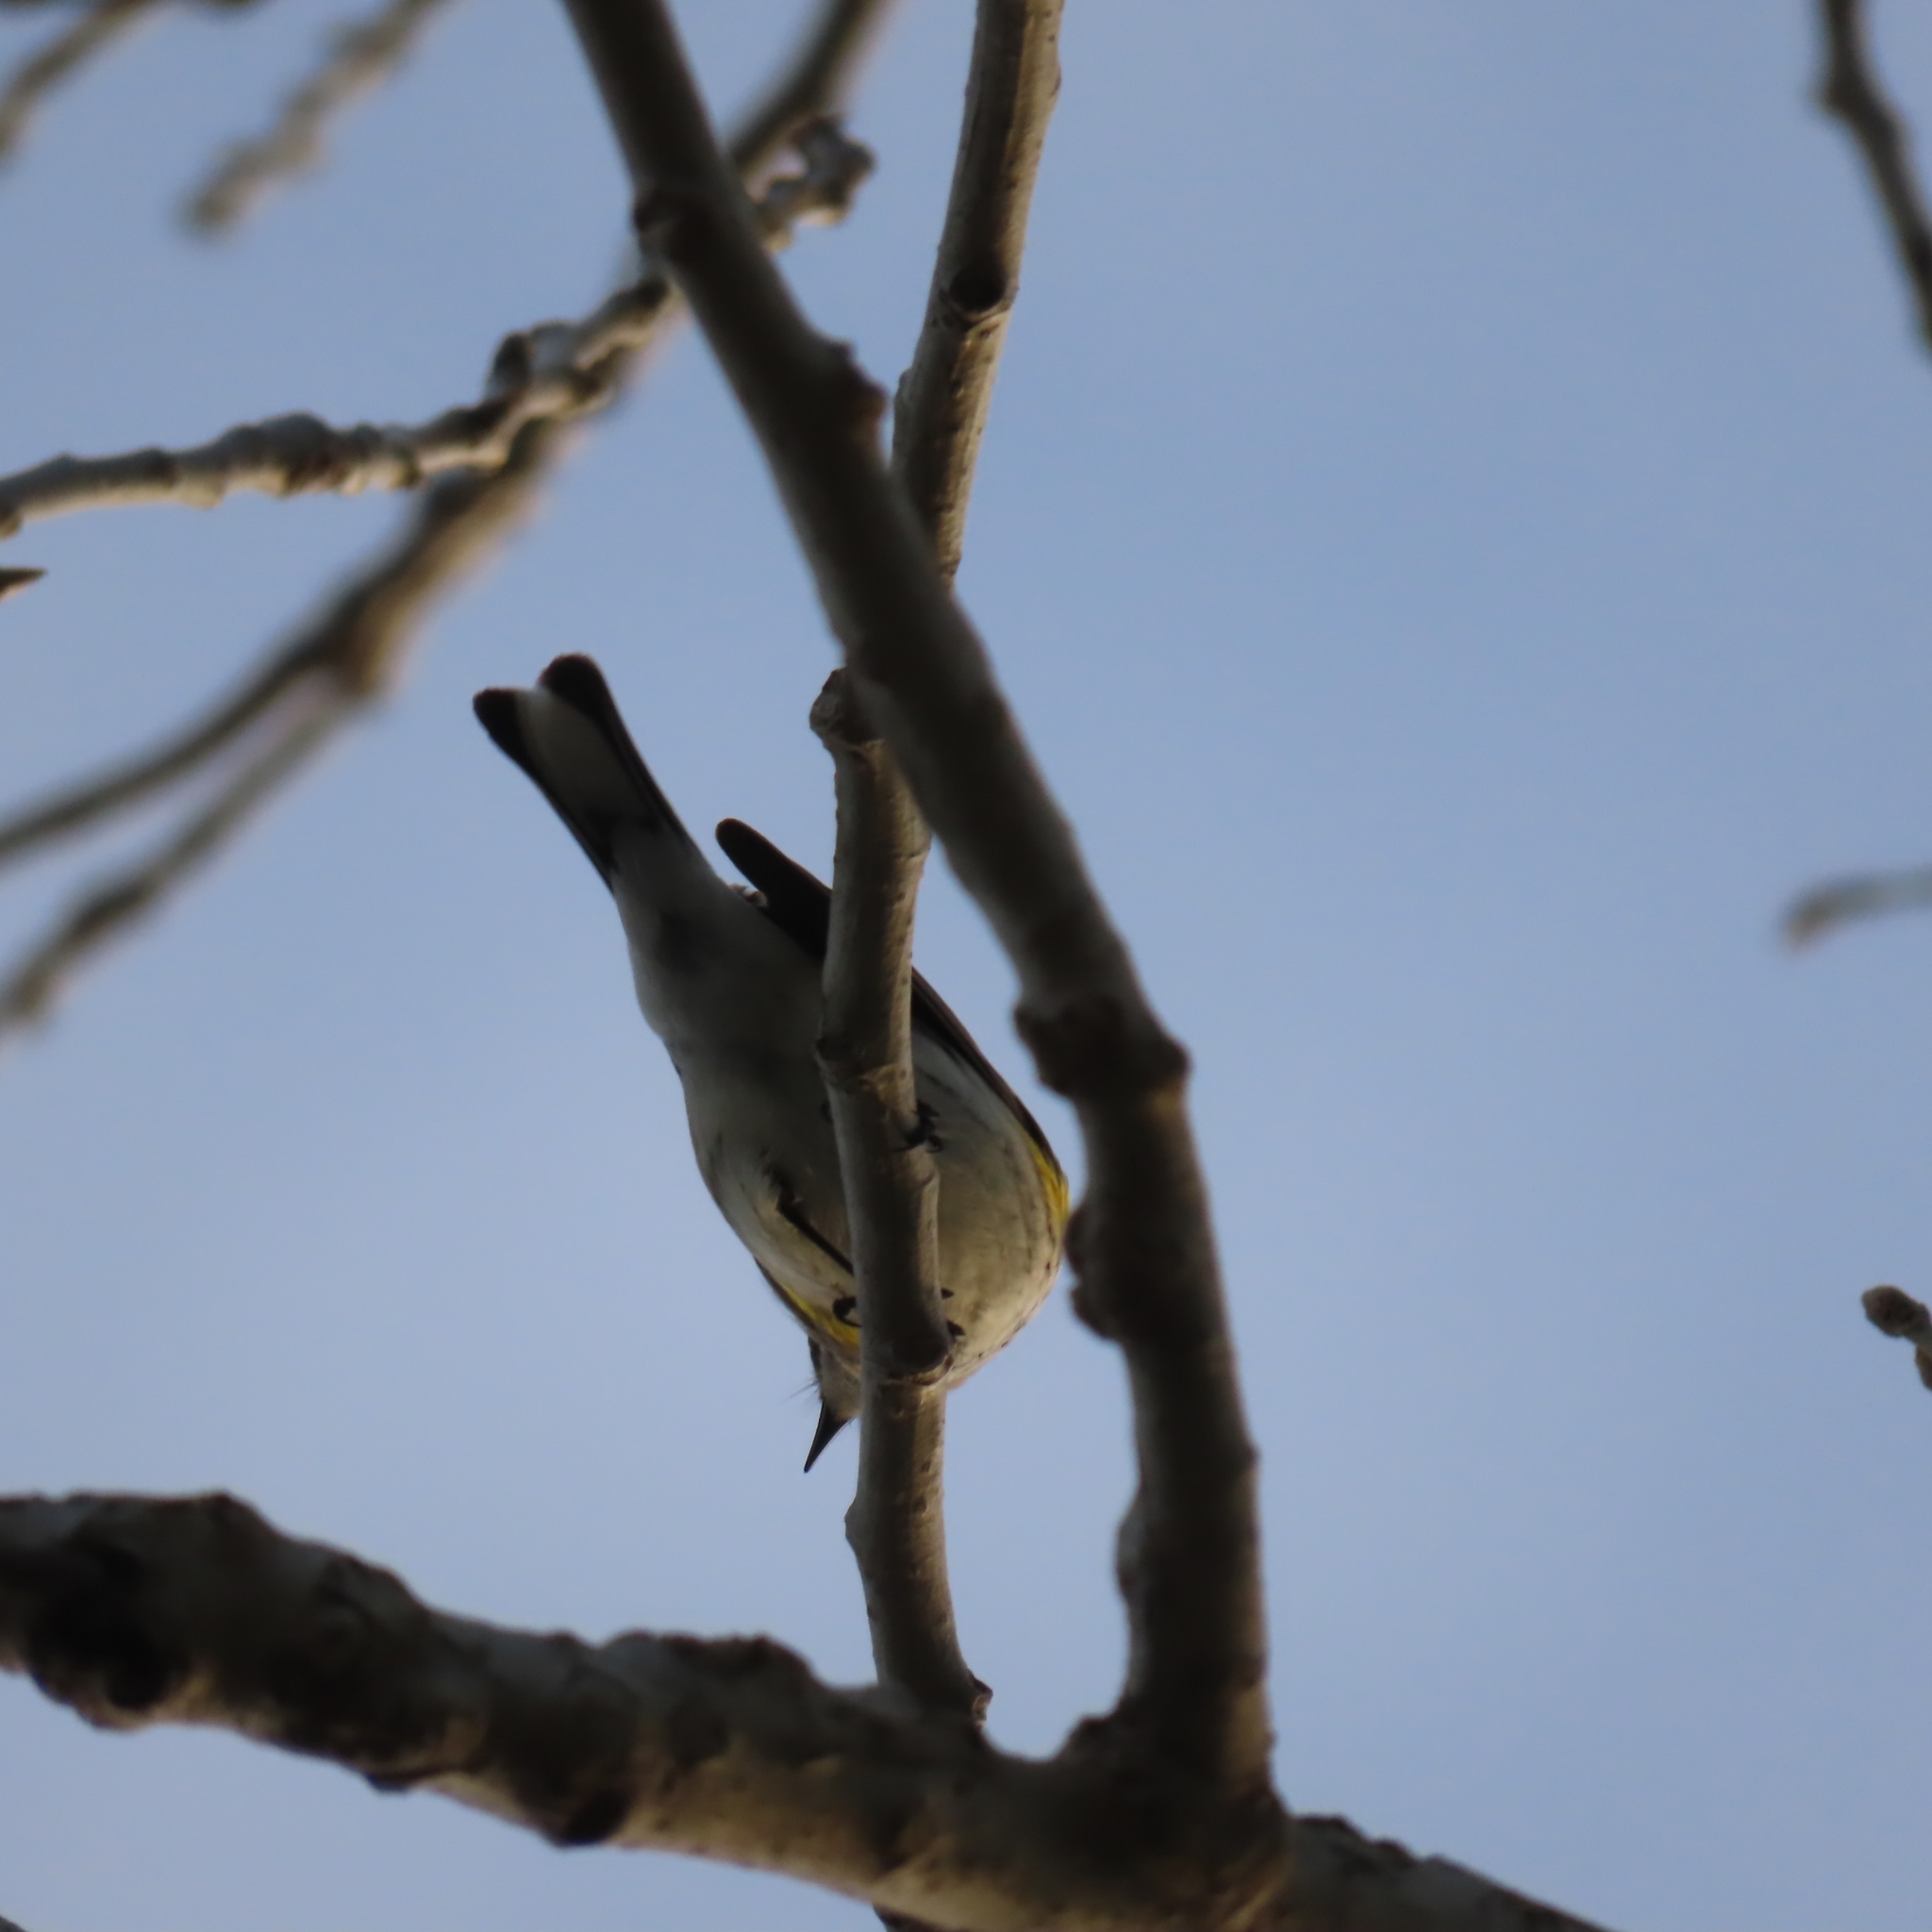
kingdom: Animalia
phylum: Chordata
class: Aves
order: Passeriformes
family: Parulidae
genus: Setophaga
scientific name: Setophaga coronata
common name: Myrtle warbler
